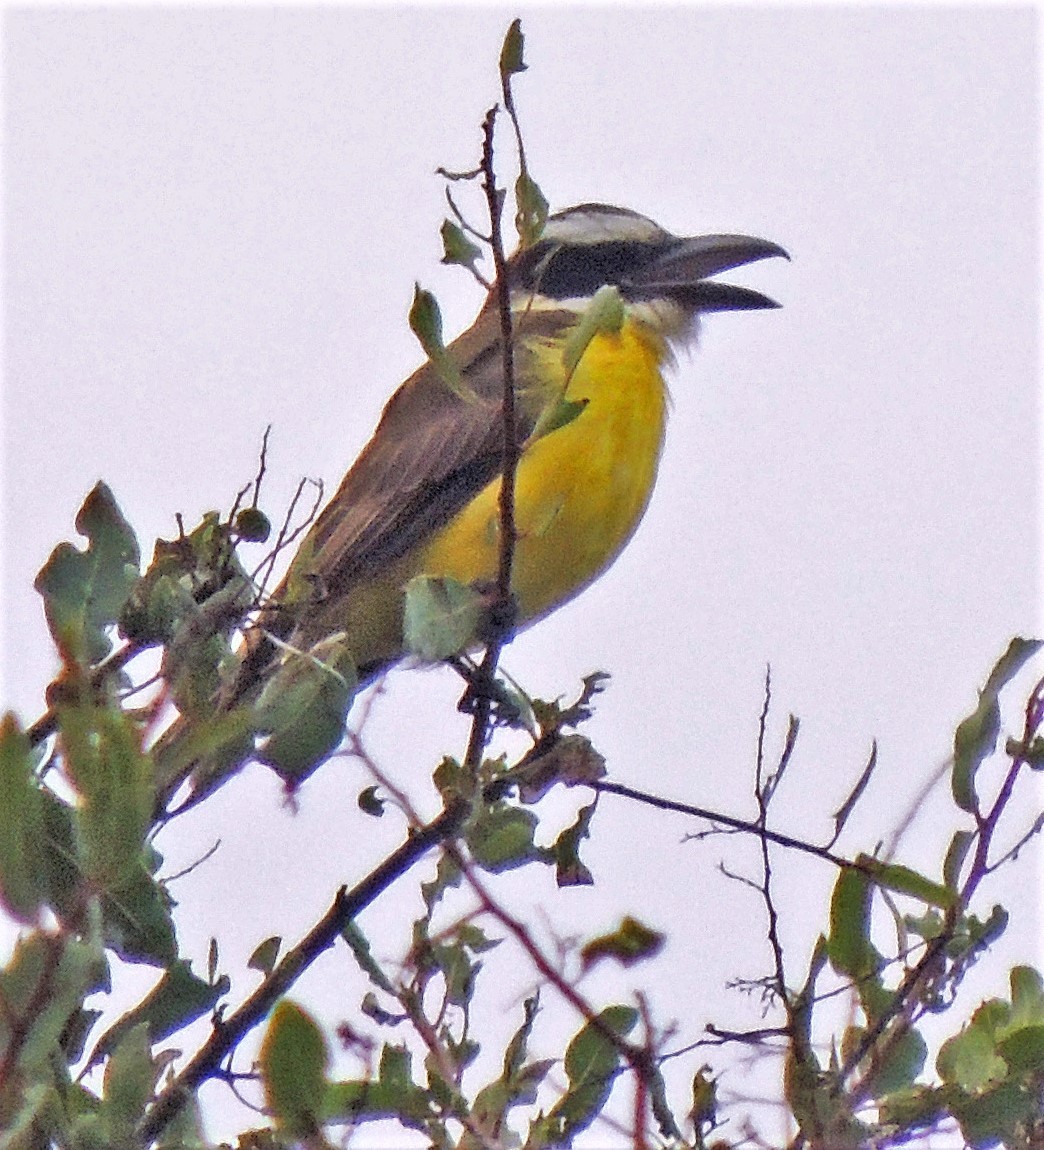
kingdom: Animalia
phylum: Chordata
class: Aves
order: Passeriformes
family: Tyrannidae
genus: Megarynchus
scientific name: Megarynchus pitangua
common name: Boat-billed flycatcher
